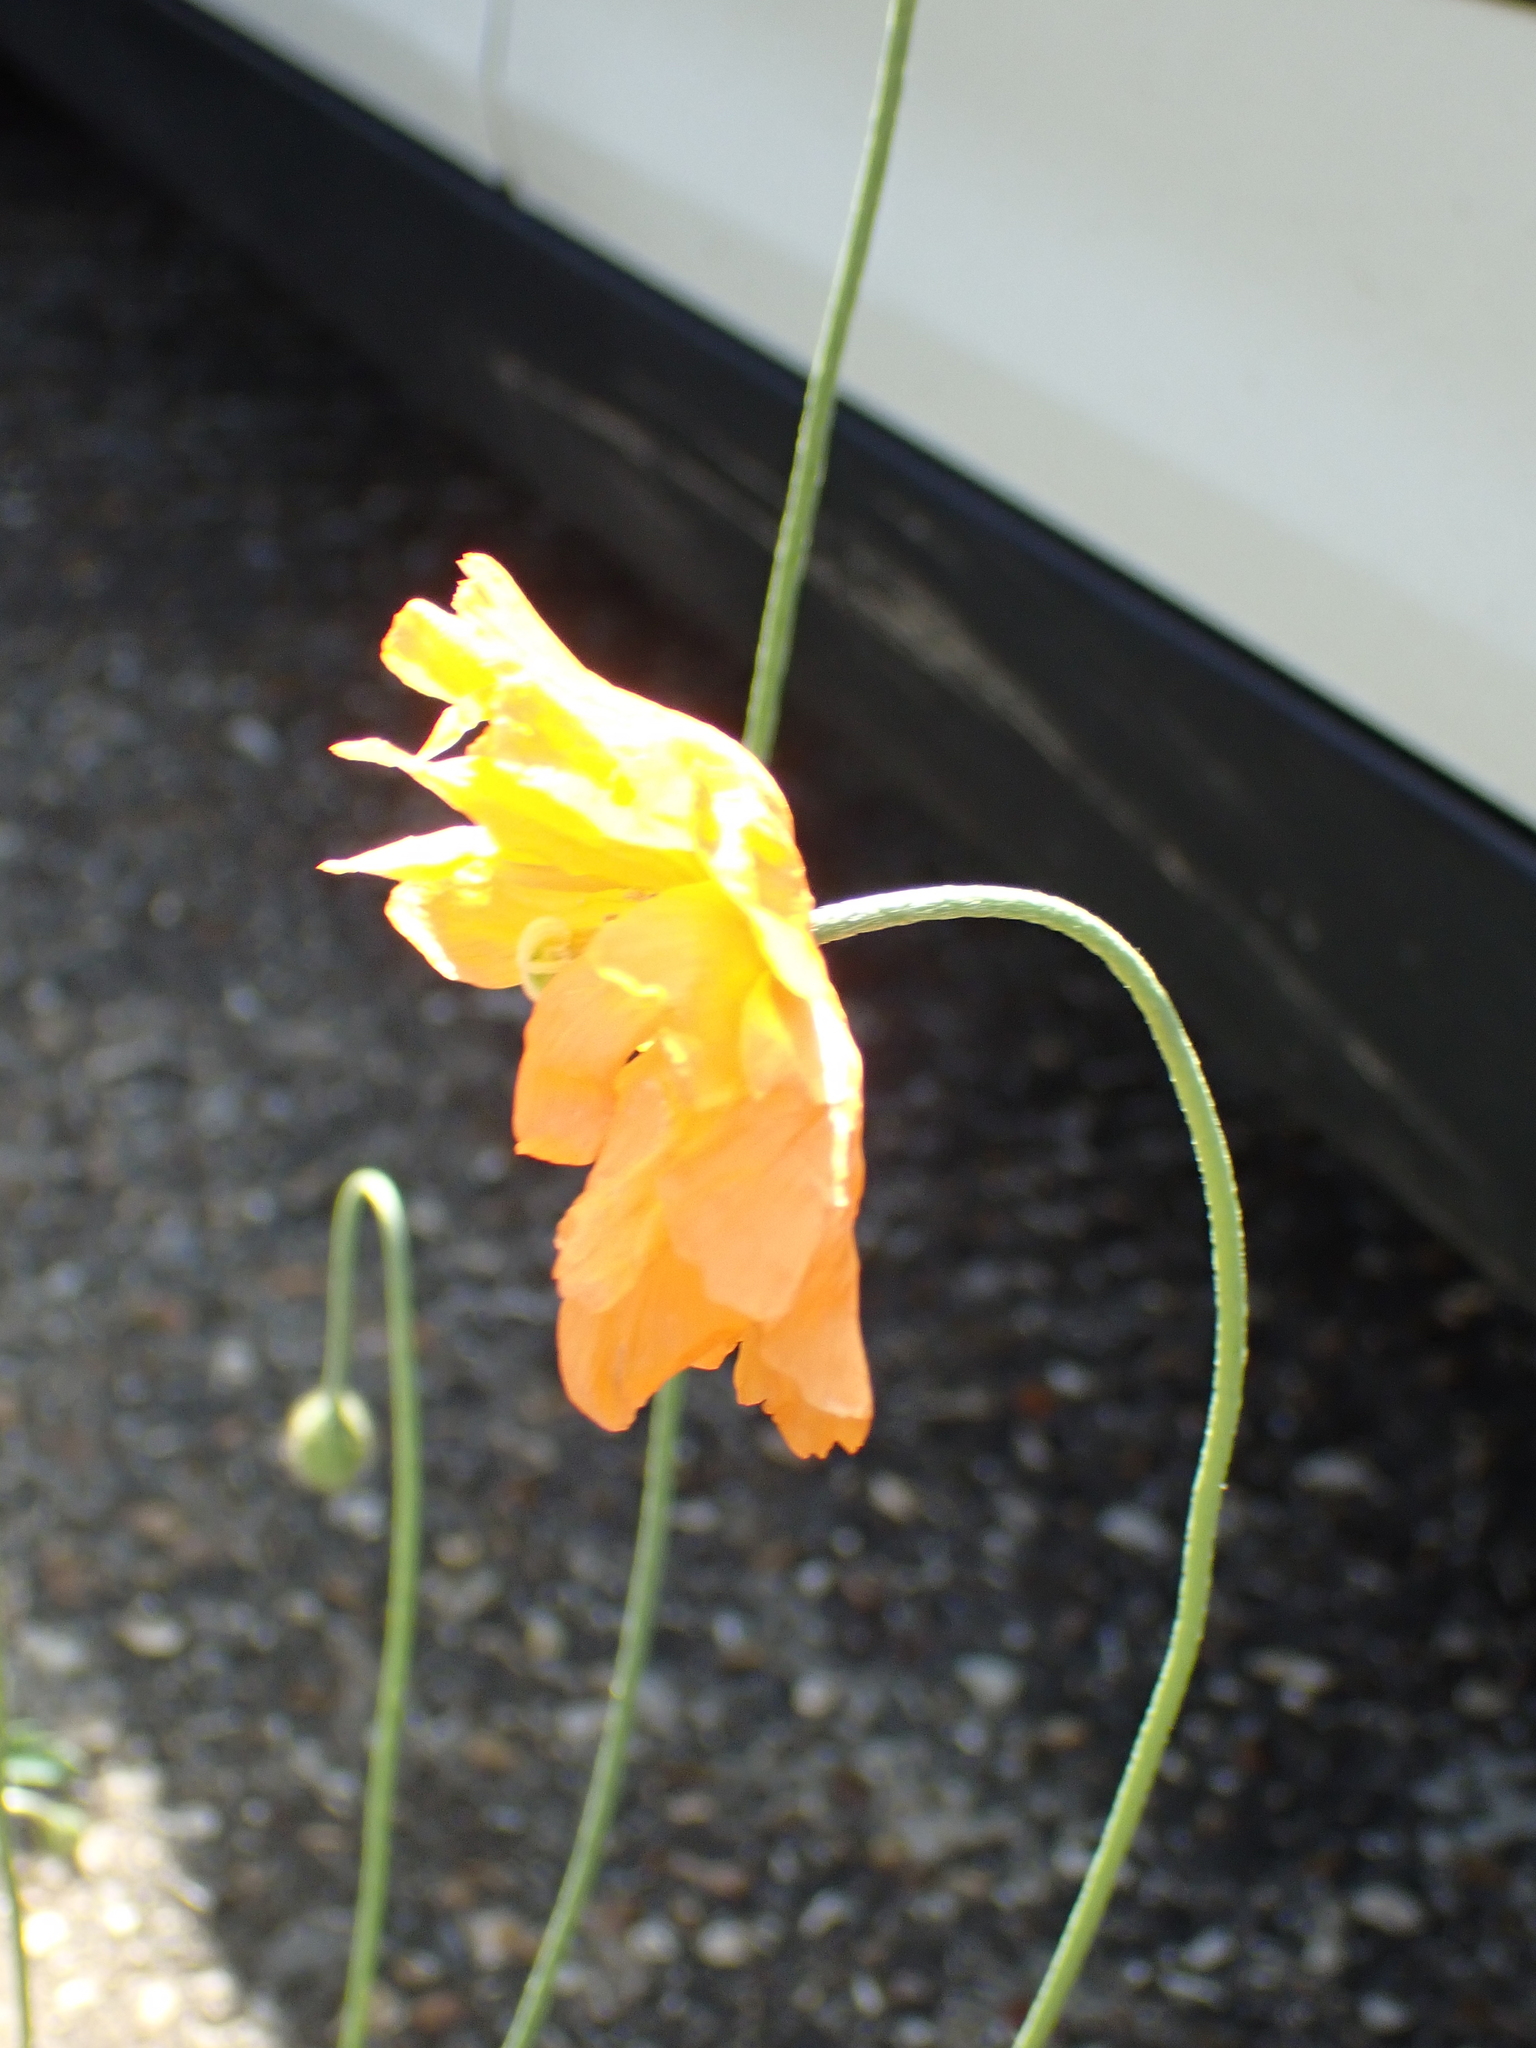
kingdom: Plantae
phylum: Tracheophyta
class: Magnoliopsida
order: Ranunculales
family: Papaveraceae
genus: Papaver
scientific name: Papaver atlanticum
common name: Atlas poppy
